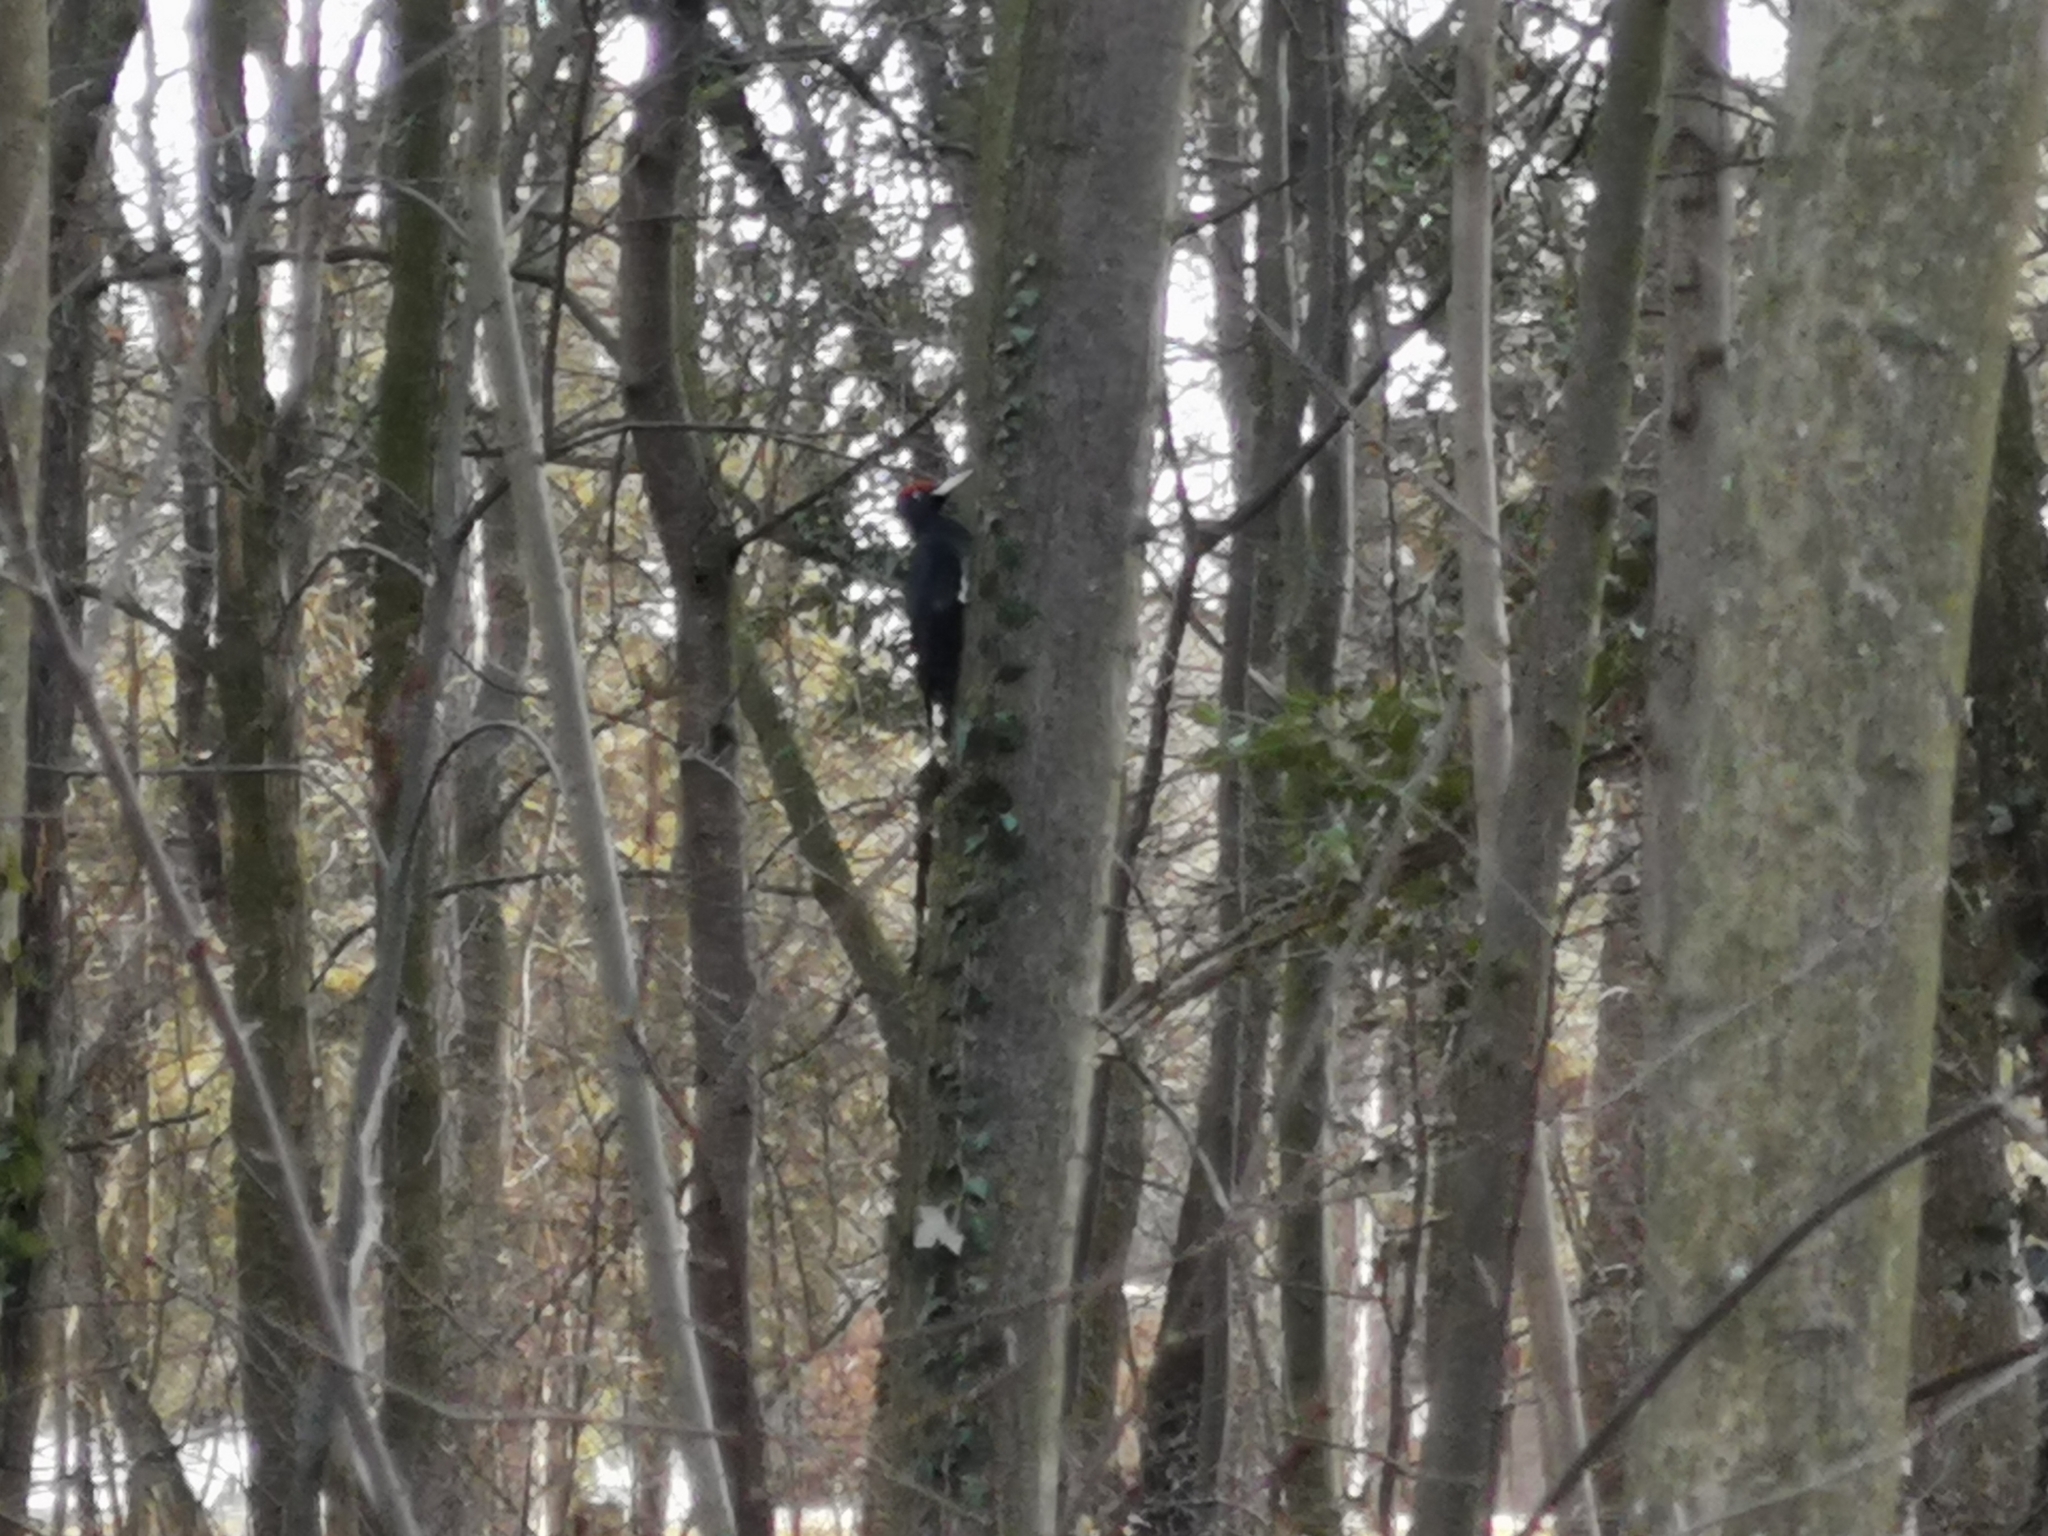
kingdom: Animalia
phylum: Chordata
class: Aves
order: Piciformes
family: Picidae
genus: Dryocopus
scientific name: Dryocopus martius
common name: Black woodpecker
